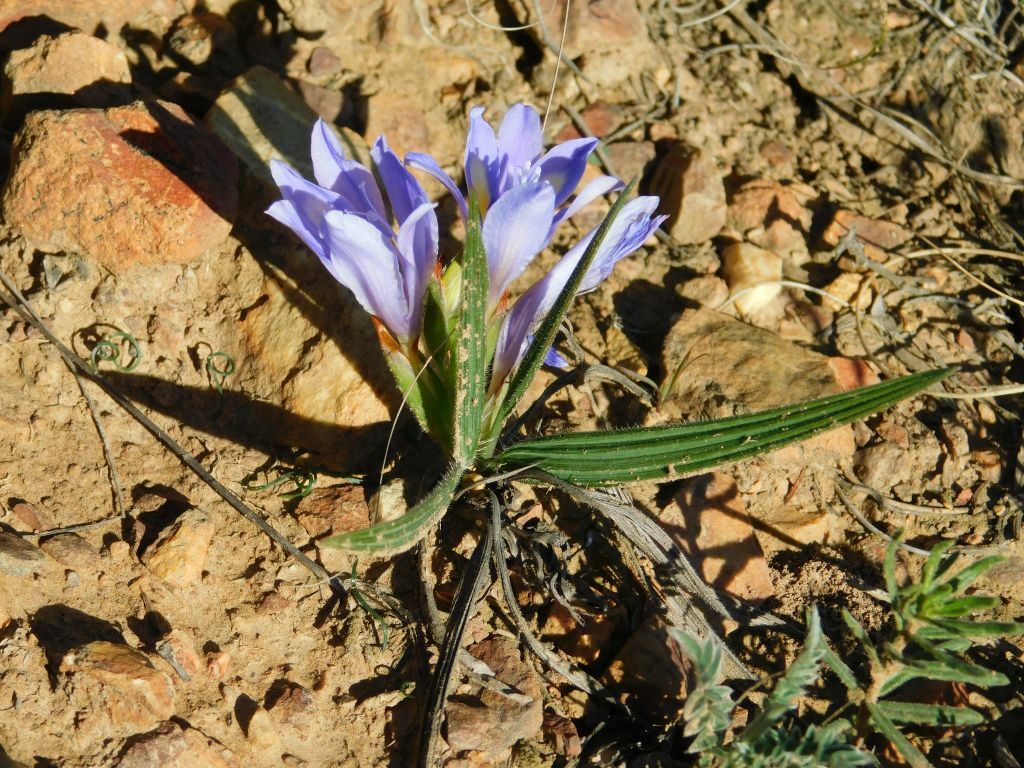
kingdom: Plantae
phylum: Tracheophyta
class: Liliopsida
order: Asparagales
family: Iridaceae
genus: Babiana
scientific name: Babiana ambigua
